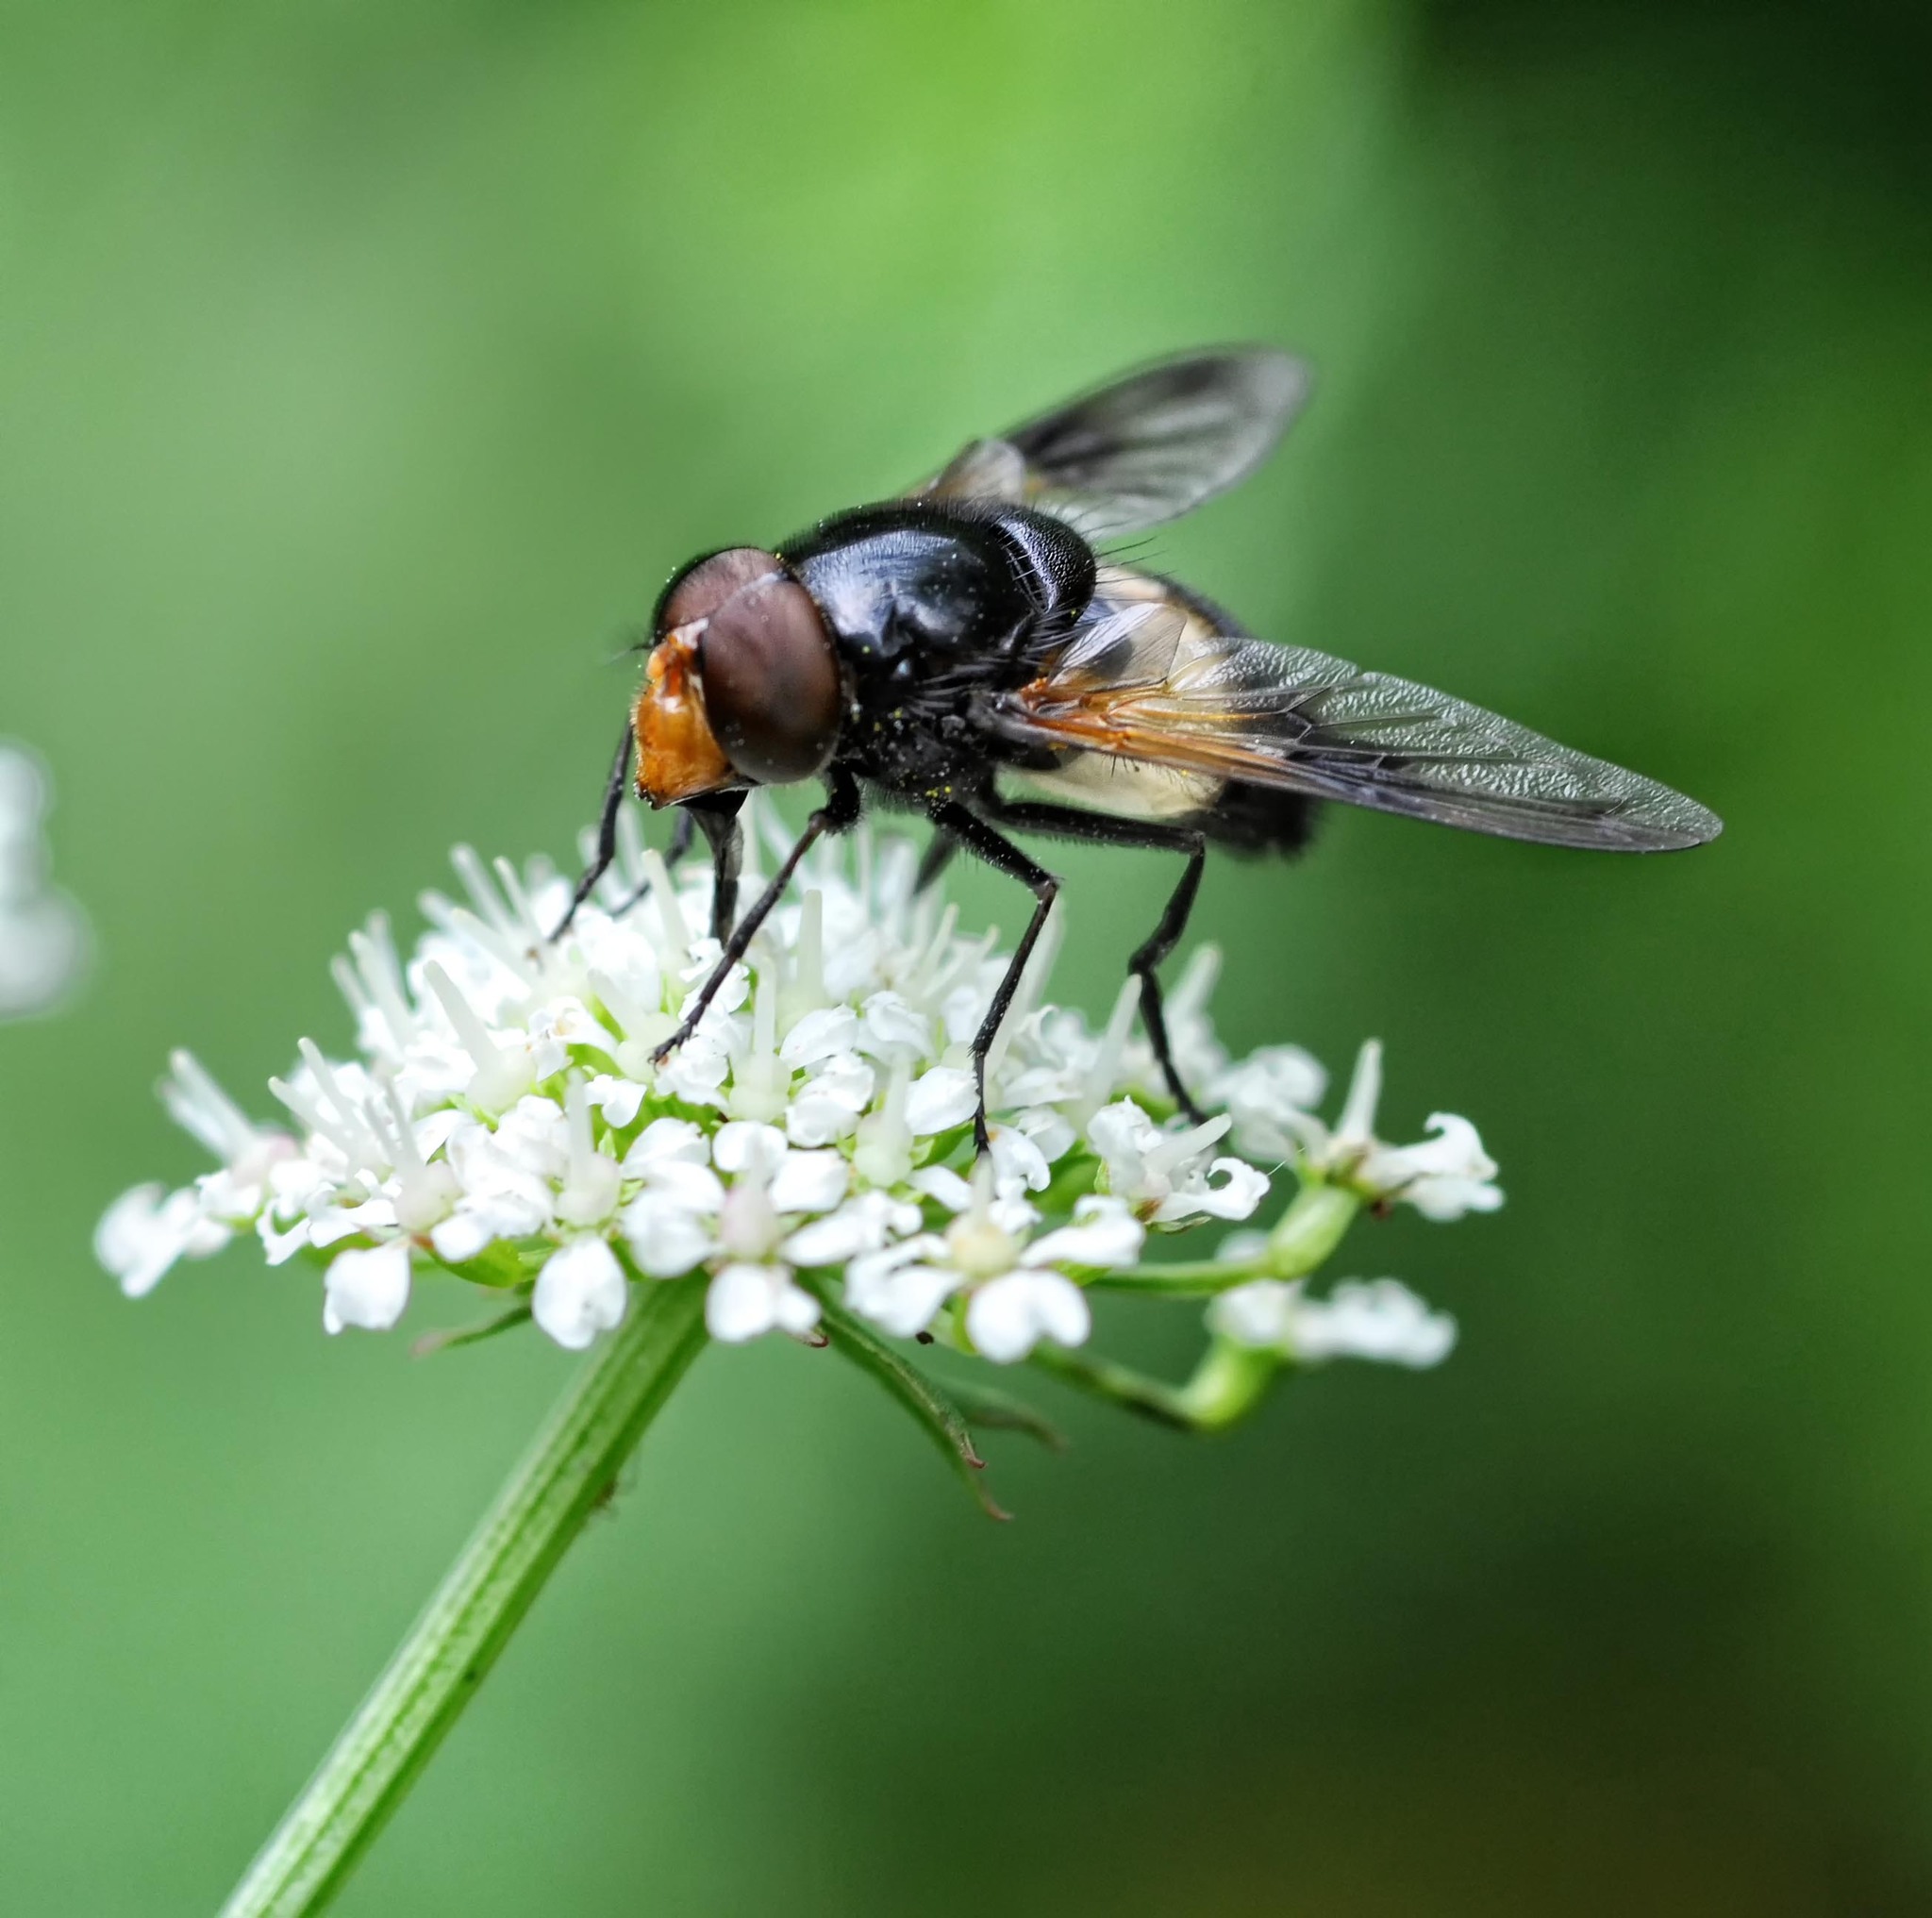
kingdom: Animalia
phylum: Arthropoda
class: Insecta
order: Diptera
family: Syrphidae
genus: Volucella
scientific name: Volucella pellucens
